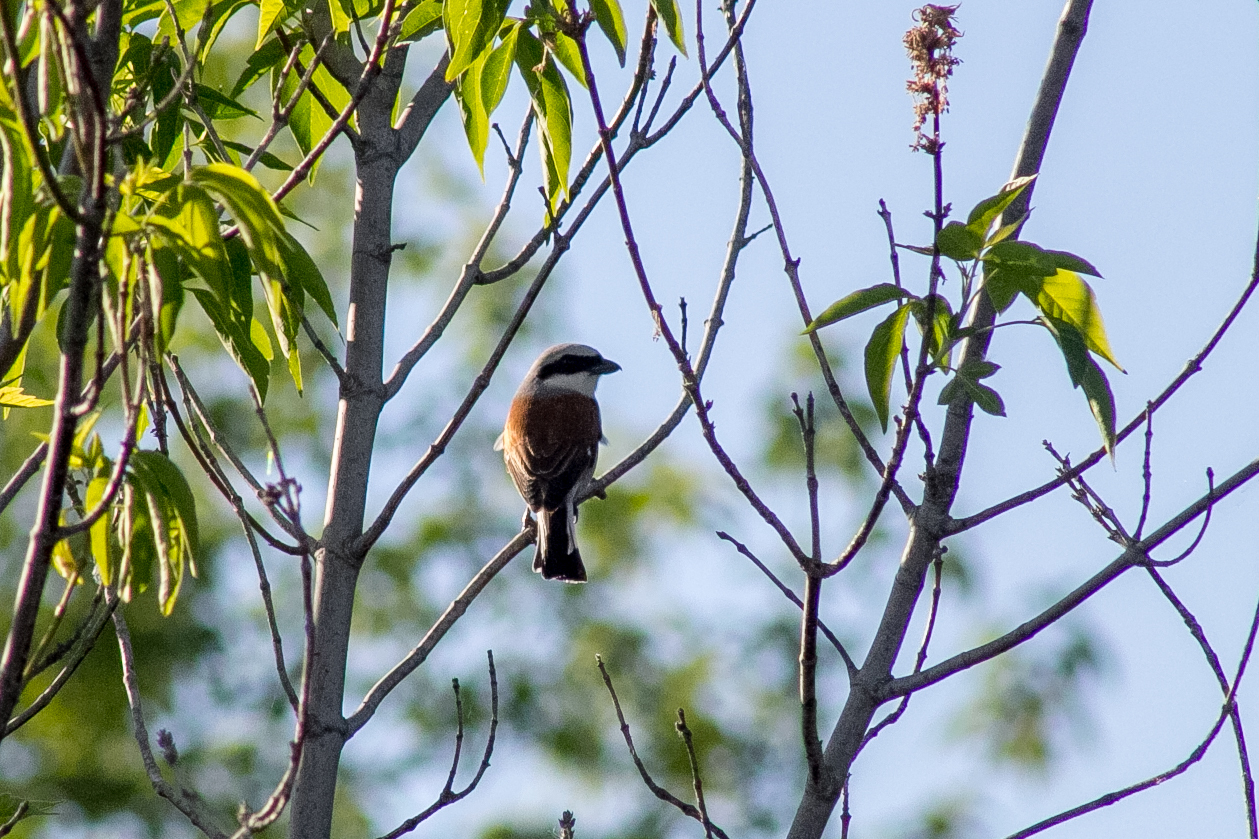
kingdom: Animalia
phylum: Chordata
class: Aves
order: Passeriformes
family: Laniidae
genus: Lanius
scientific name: Lanius collurio
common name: Red-backed shrike
